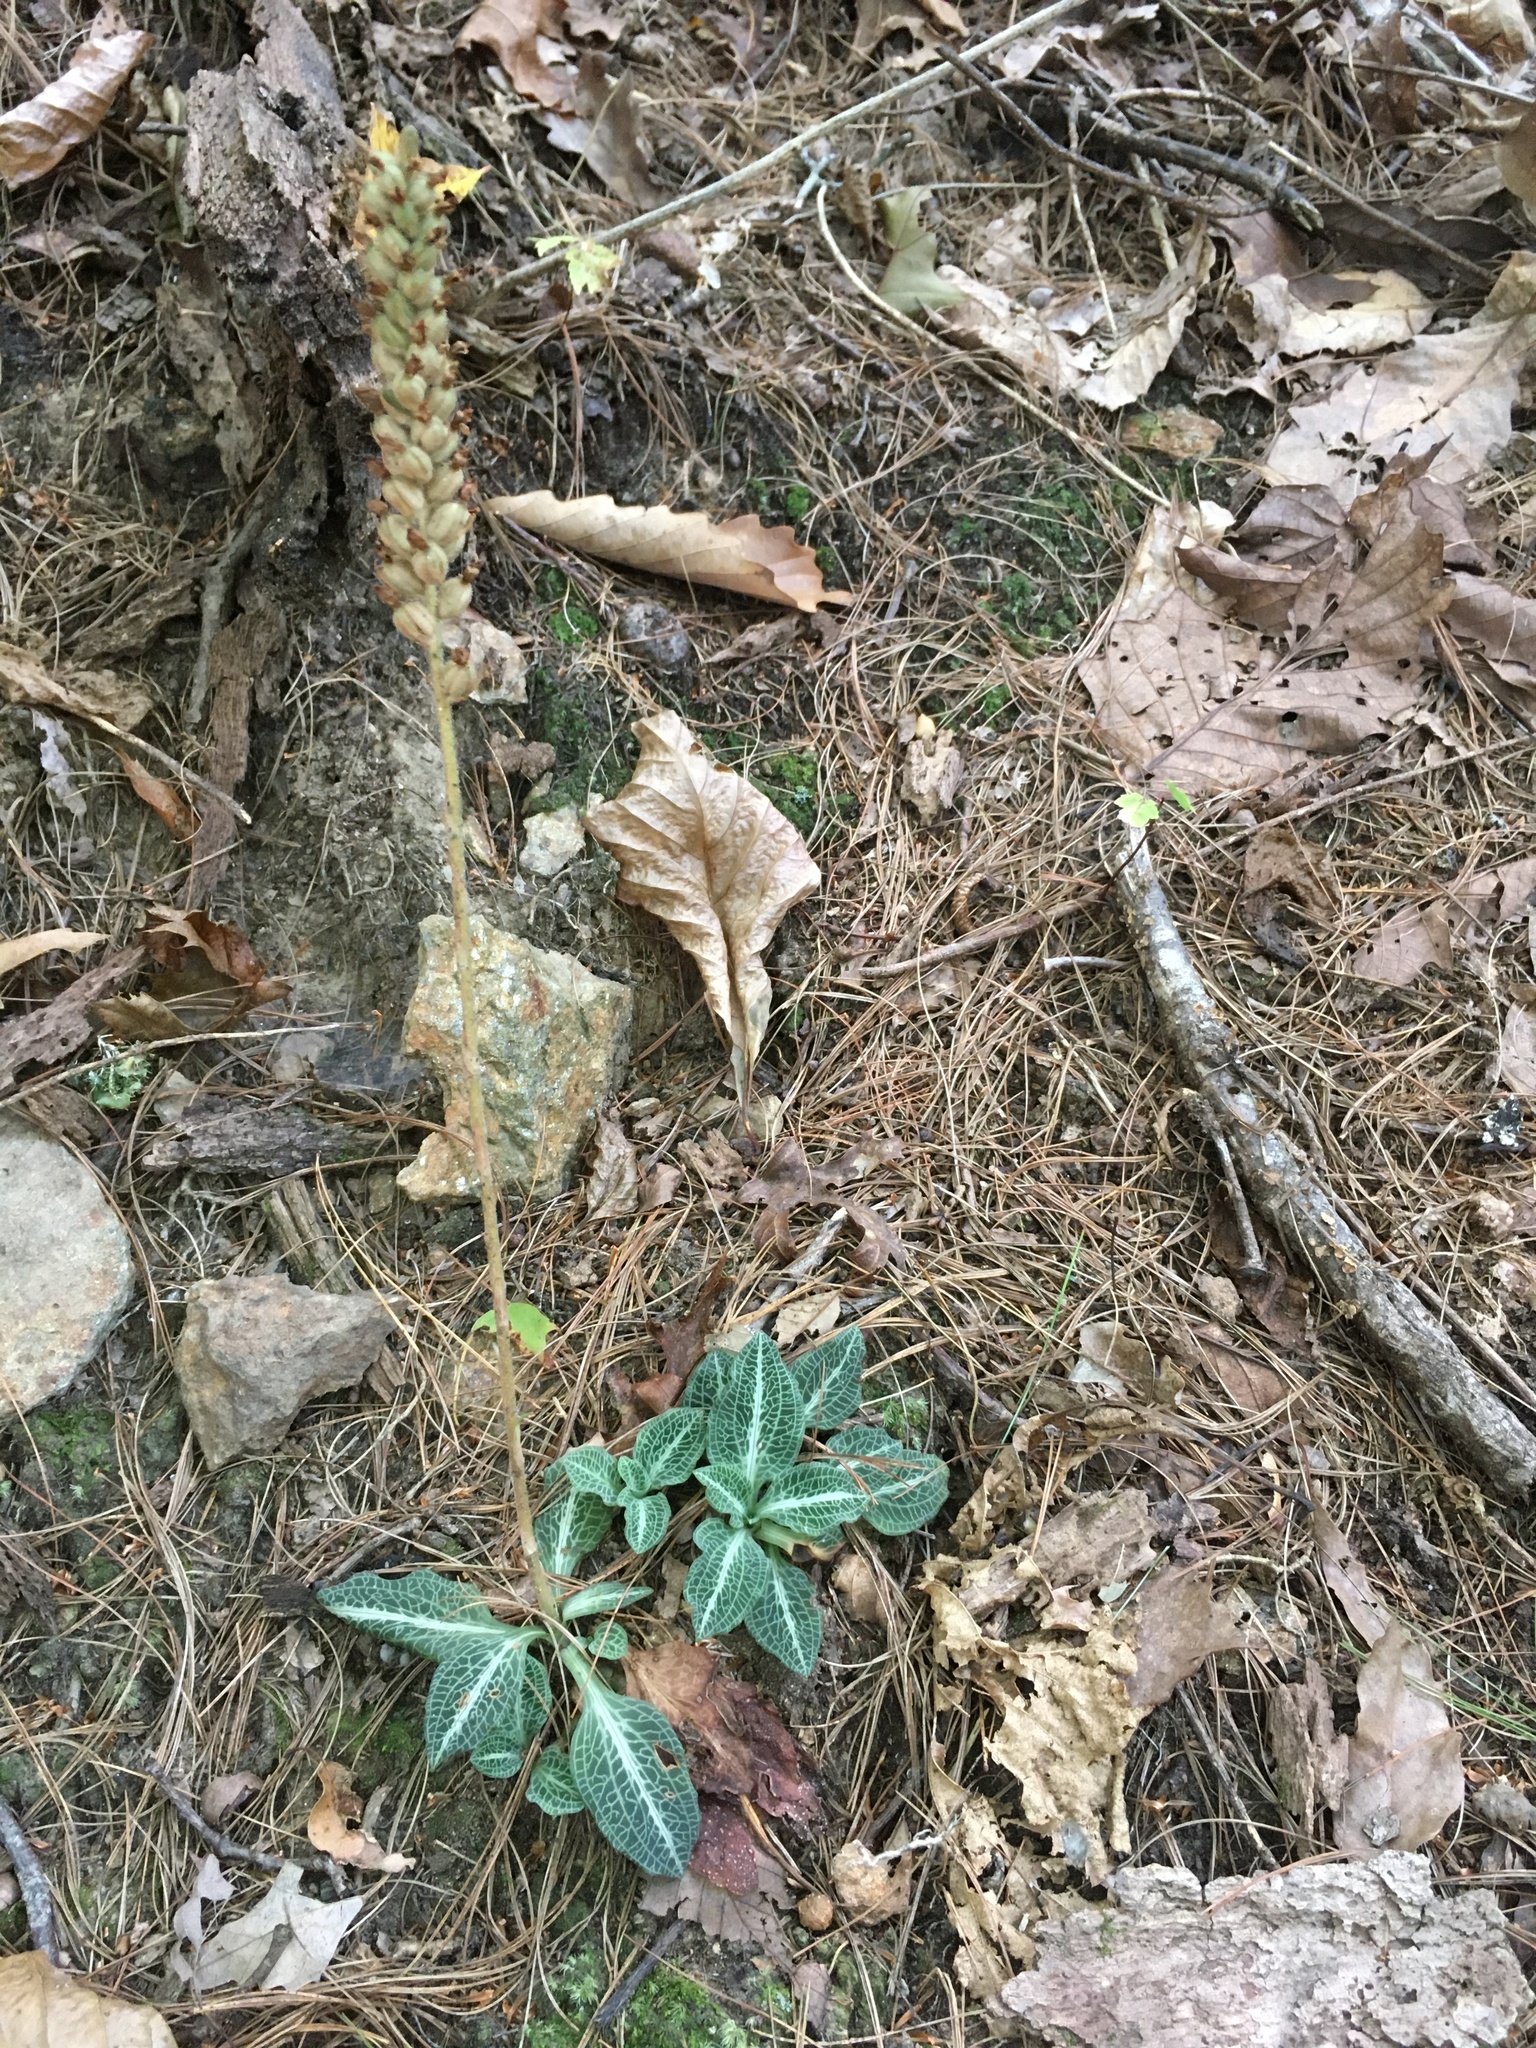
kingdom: Plantae
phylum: Tracheophyta
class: Liliopsida
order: Asparagales
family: Orchidaceae
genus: Goodyera
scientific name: Goodyera pubescens
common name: Downy rattlesnake-plantain
